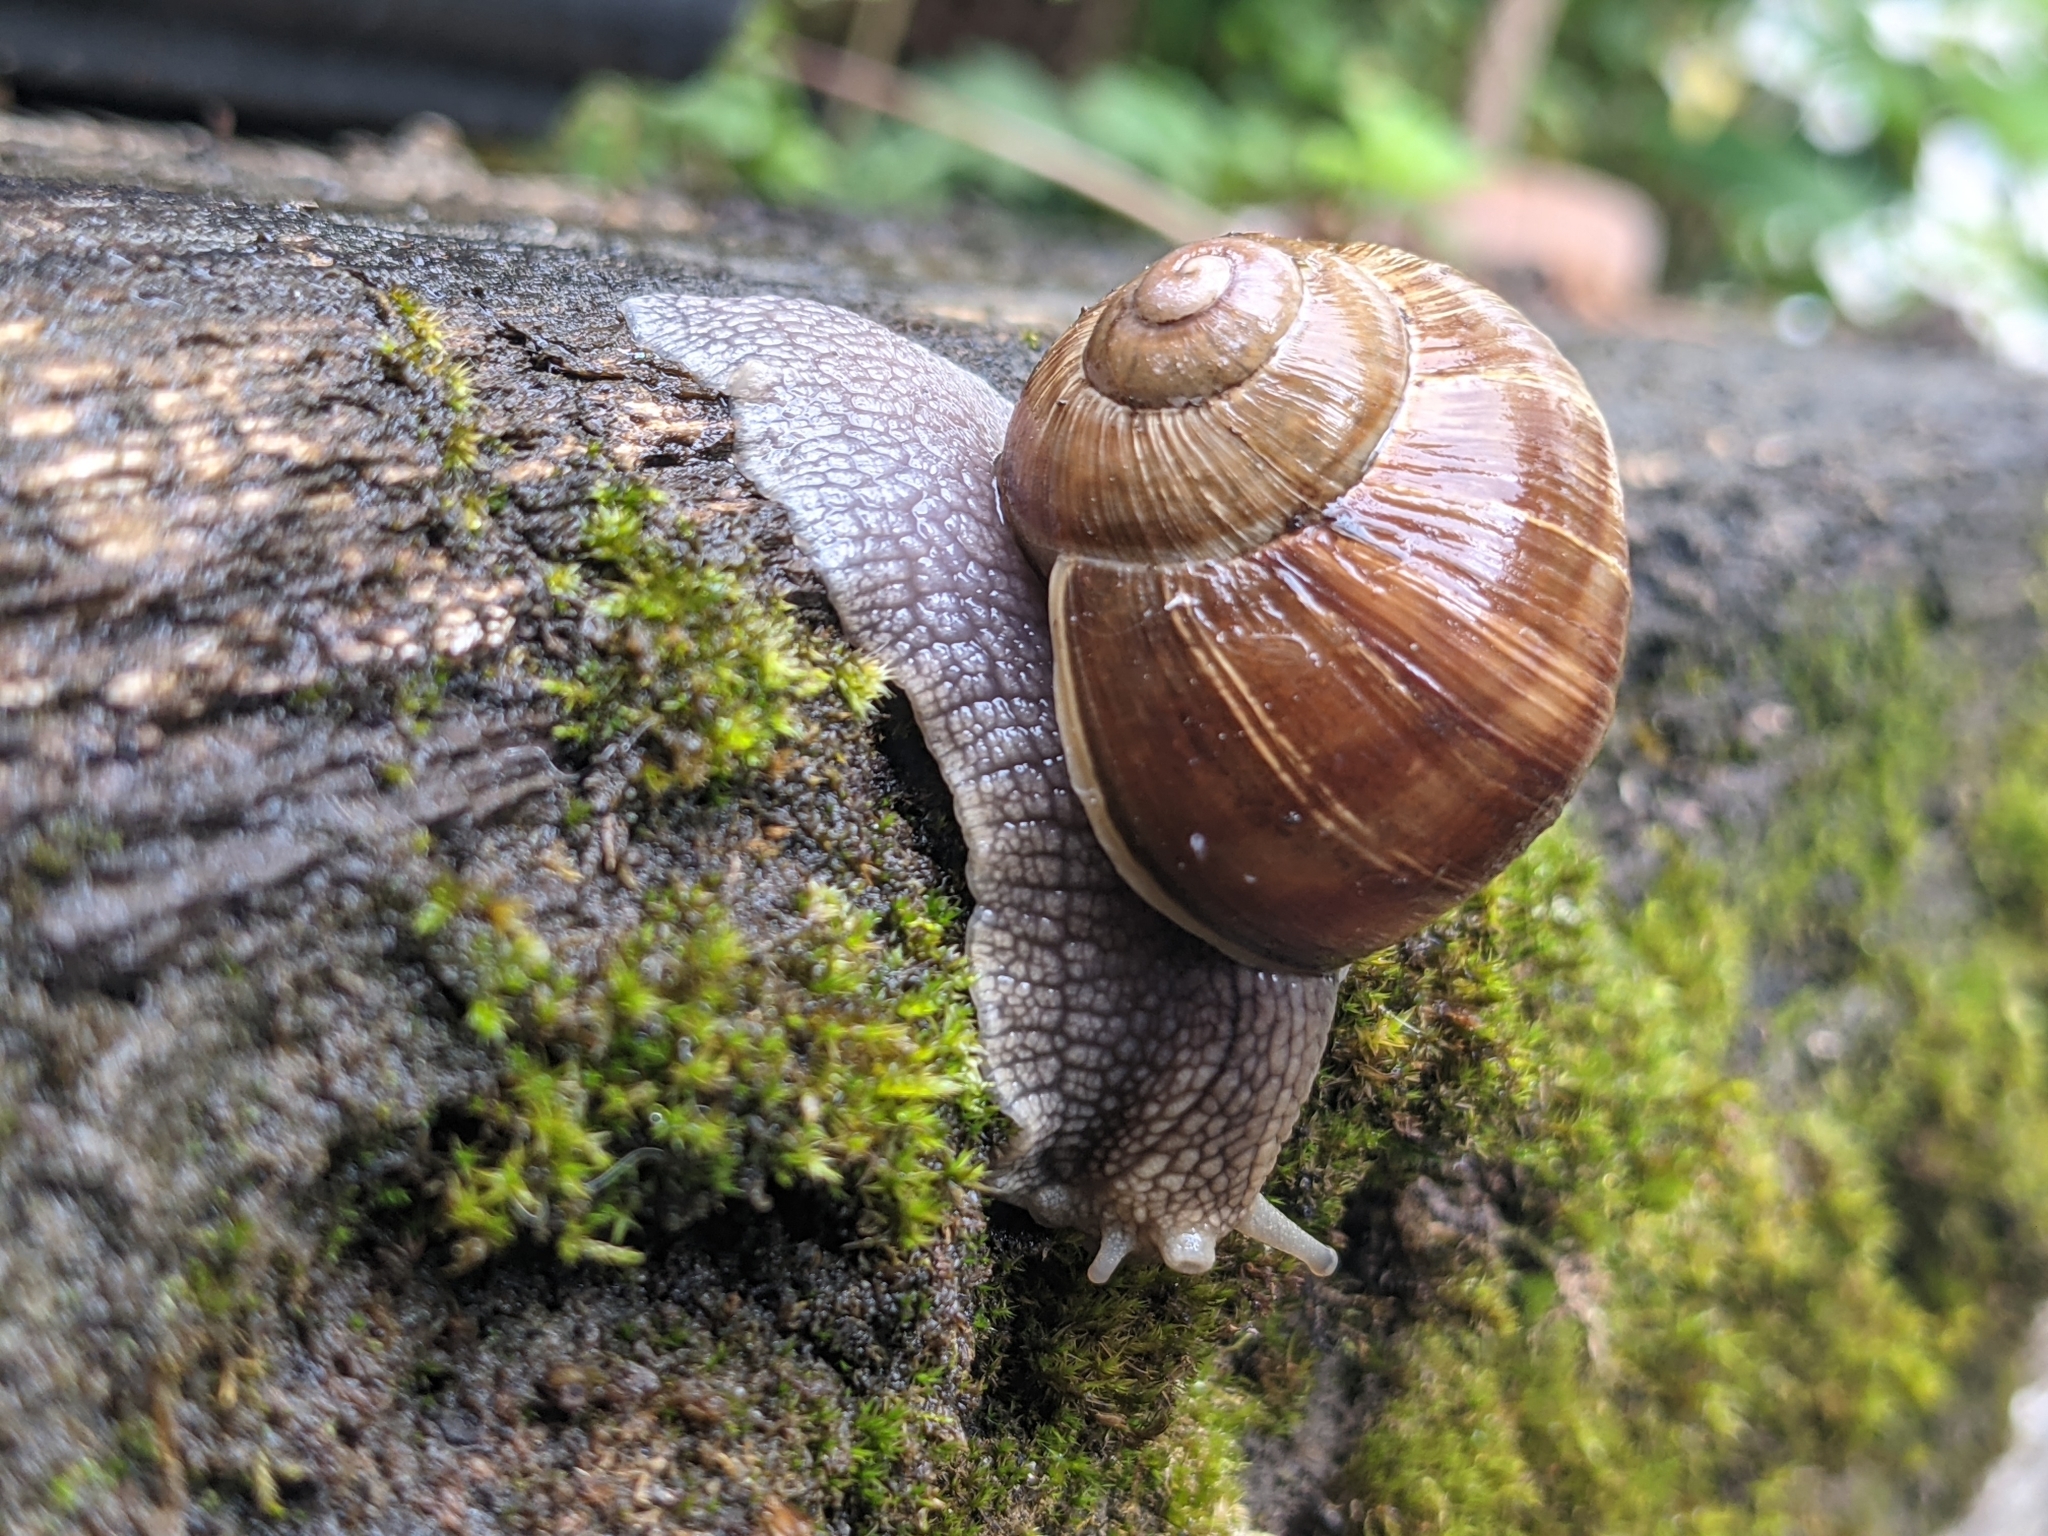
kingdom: Animalia
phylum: Mollusca
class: Gastropoda
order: Stylommatophora
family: Helicidae
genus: Helix
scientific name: Helix pomatia
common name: Roman snail
